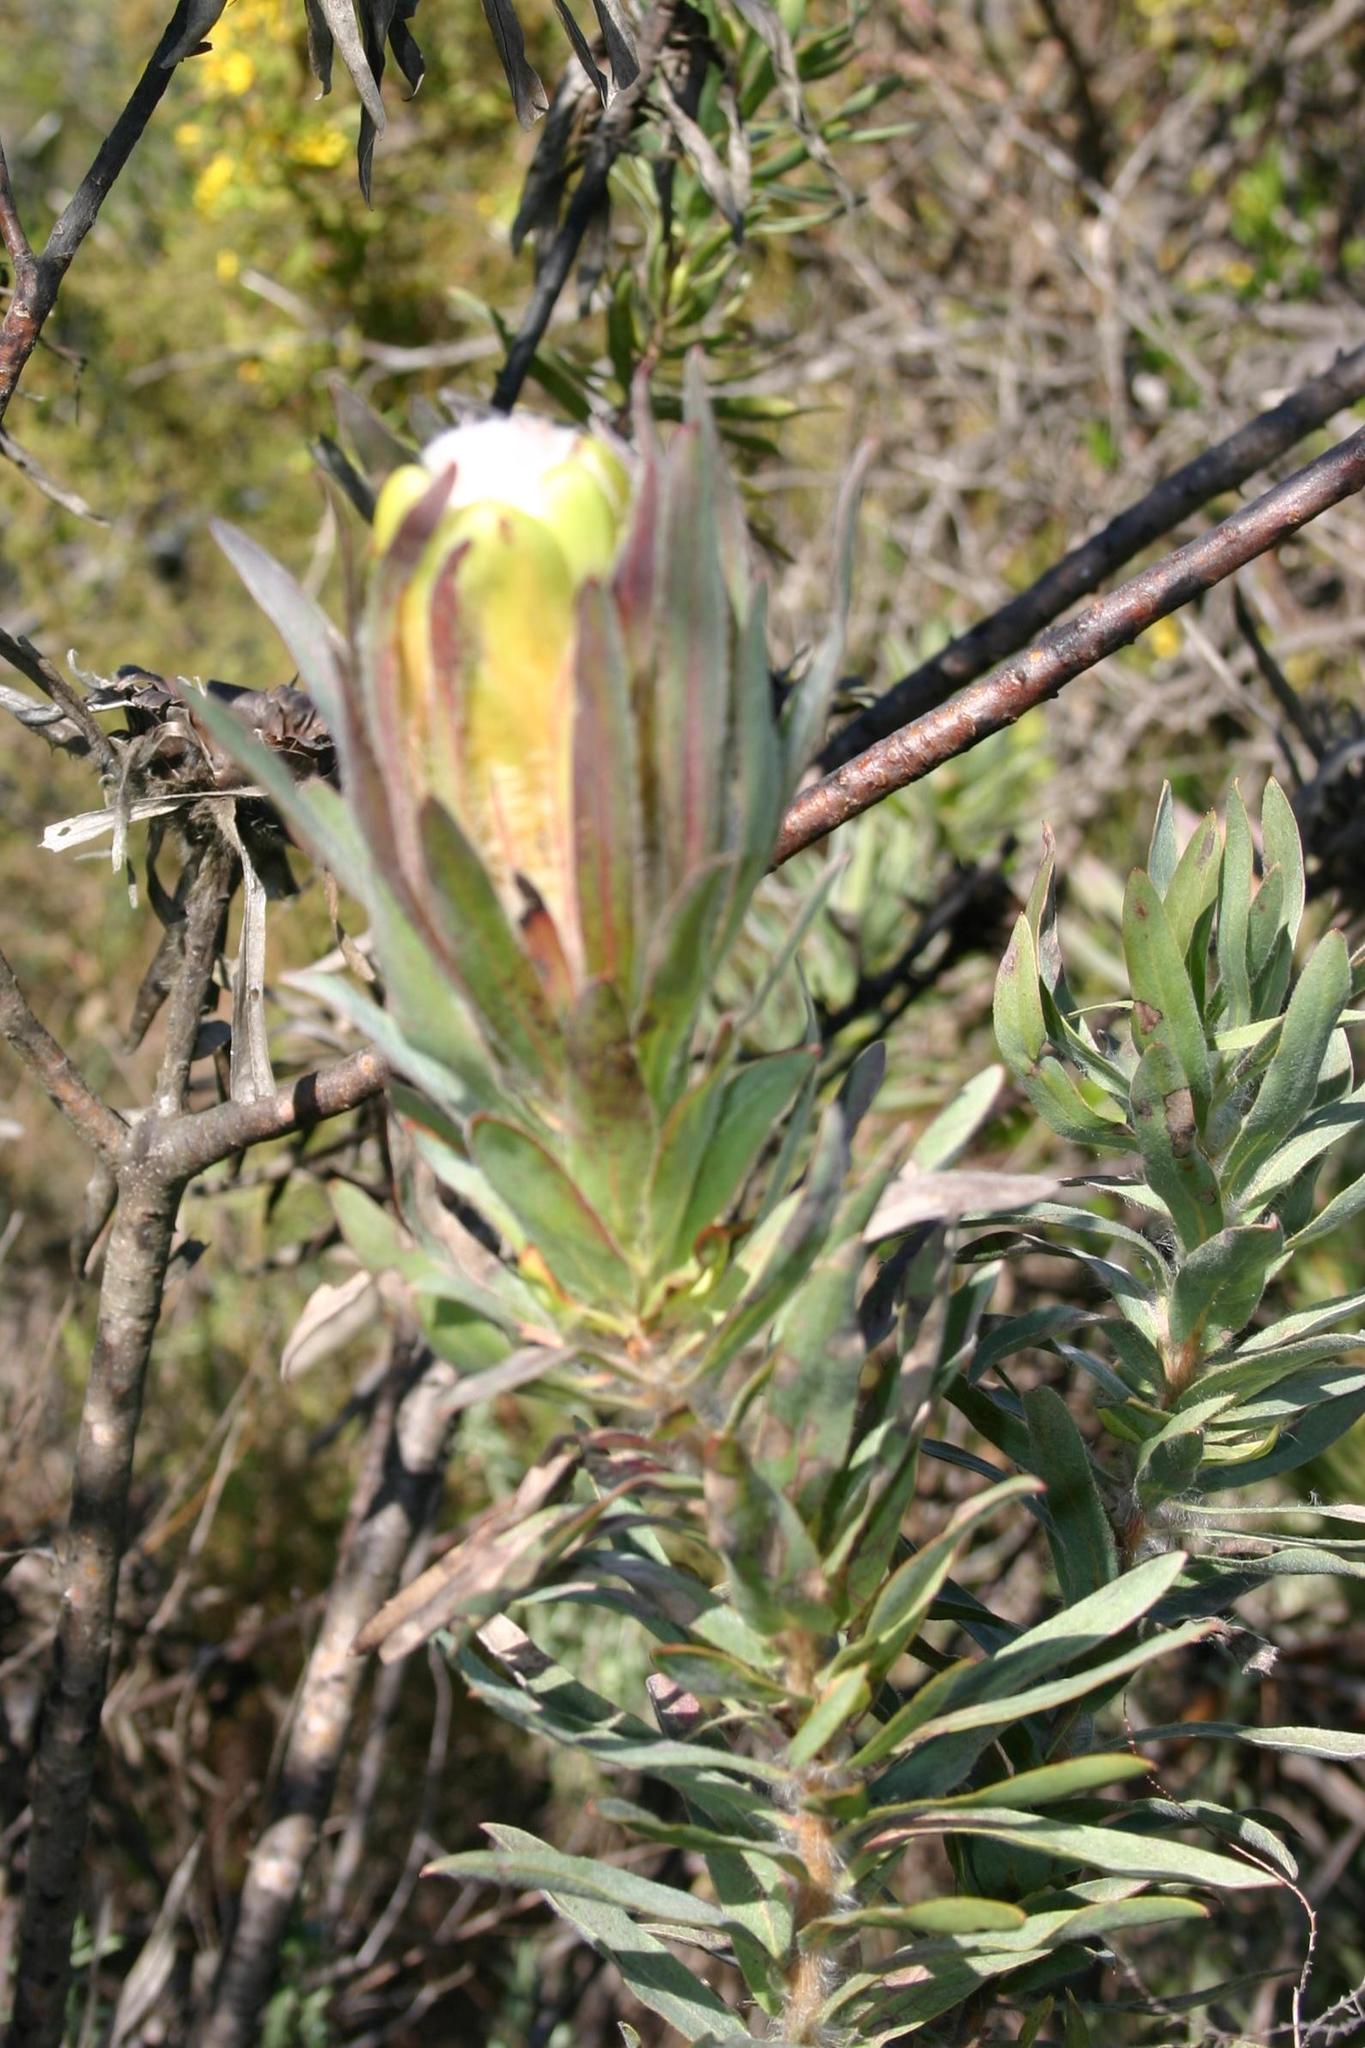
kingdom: Plantae
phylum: Tracheophyta
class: Magnoliopsida
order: Proteales
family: Proteaceae
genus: Protea
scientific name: Protea coronata
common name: Green sugarbush
